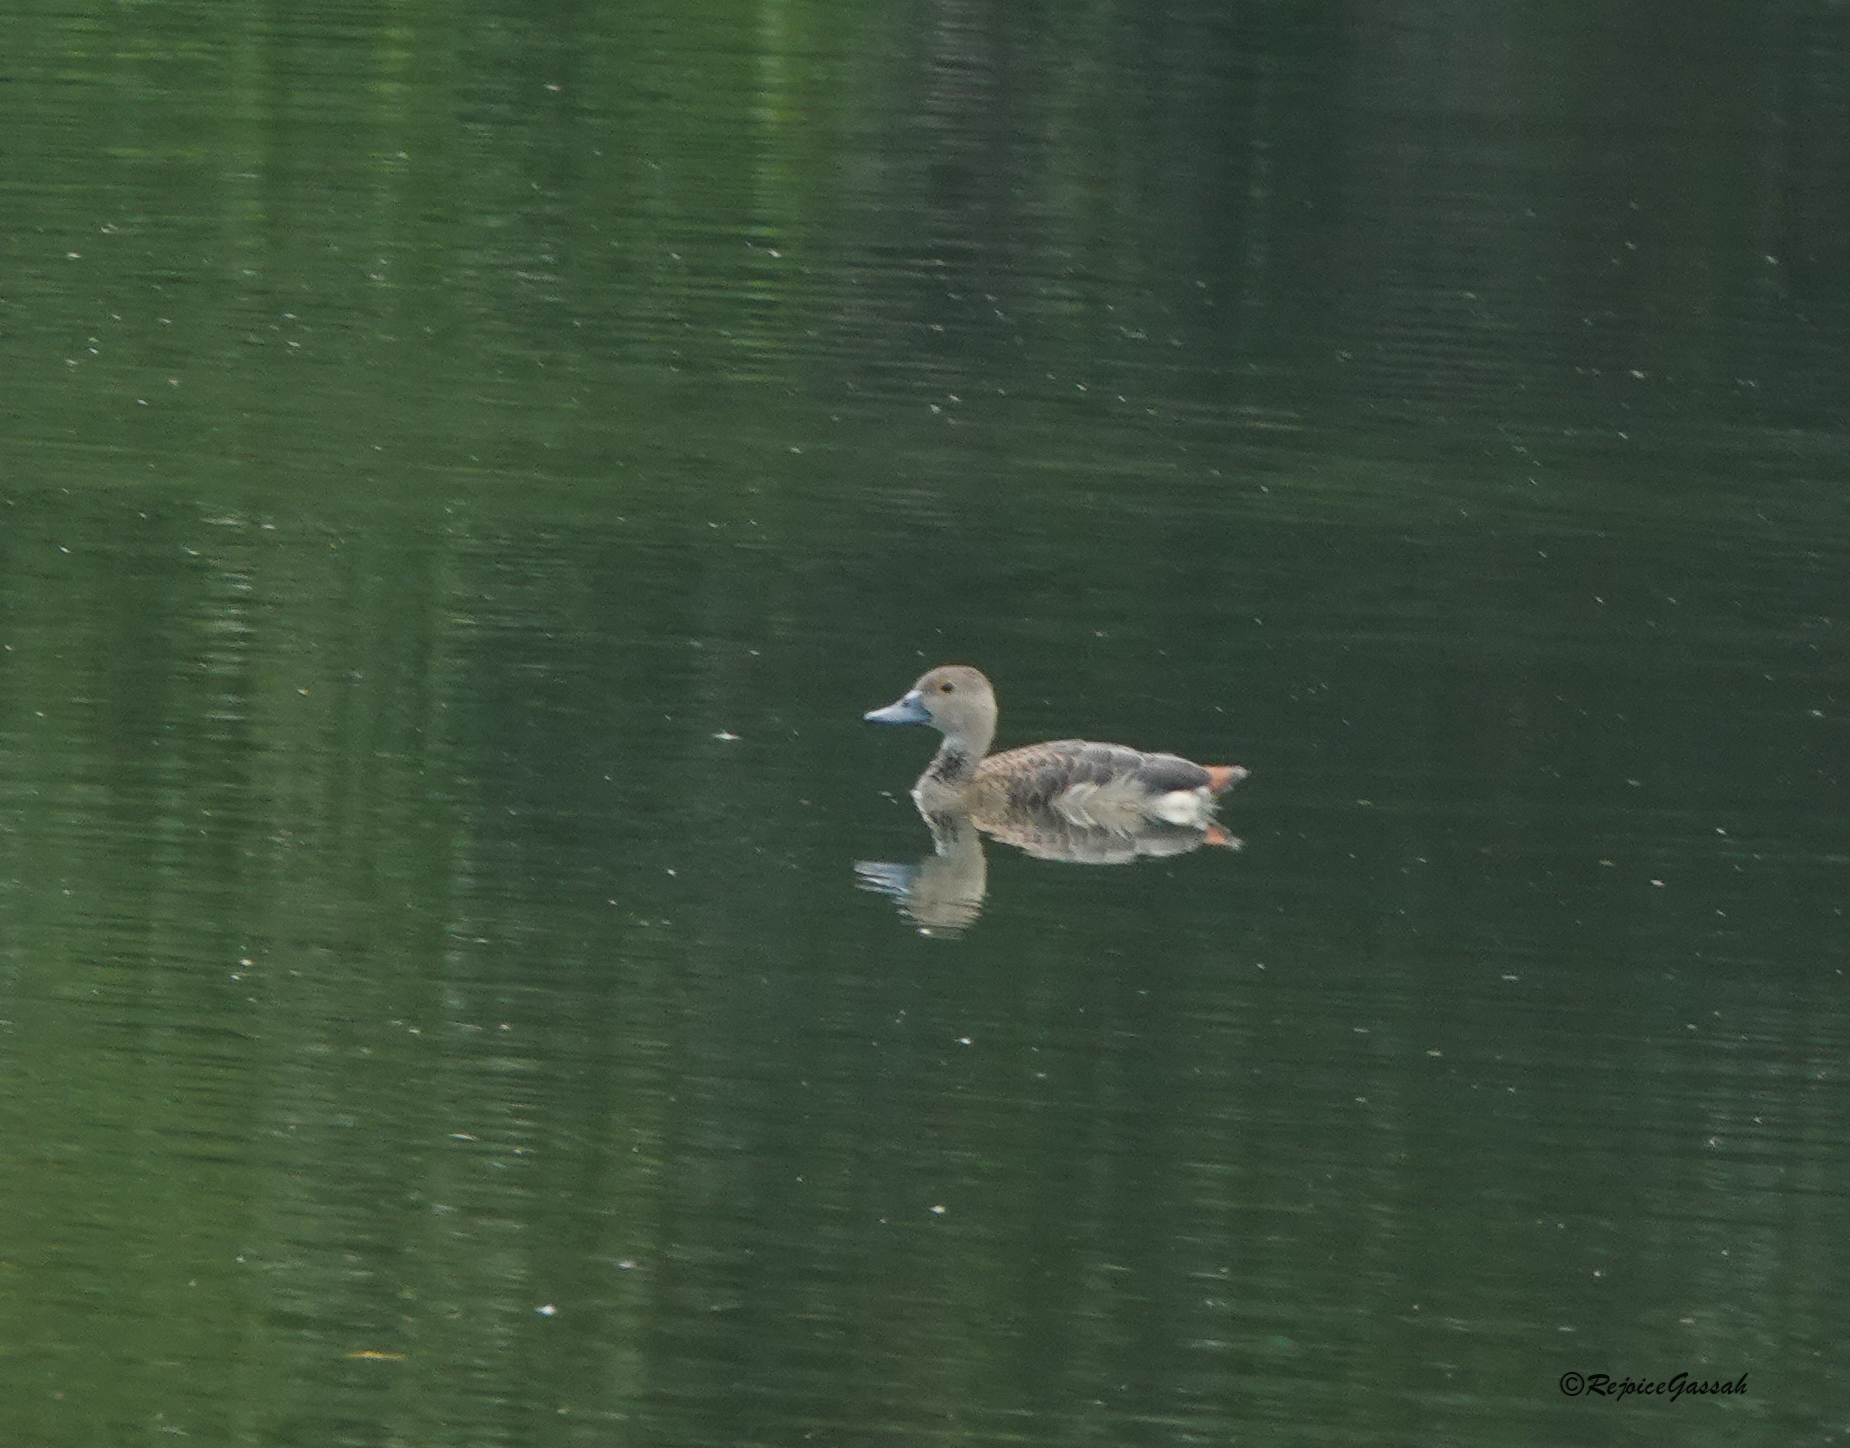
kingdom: Animalia
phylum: Chordata
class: Aves
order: Anseriformes
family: Anatidae
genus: Dendrocygna
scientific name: Dendrocygna javanica
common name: Lesser whistling-duck
